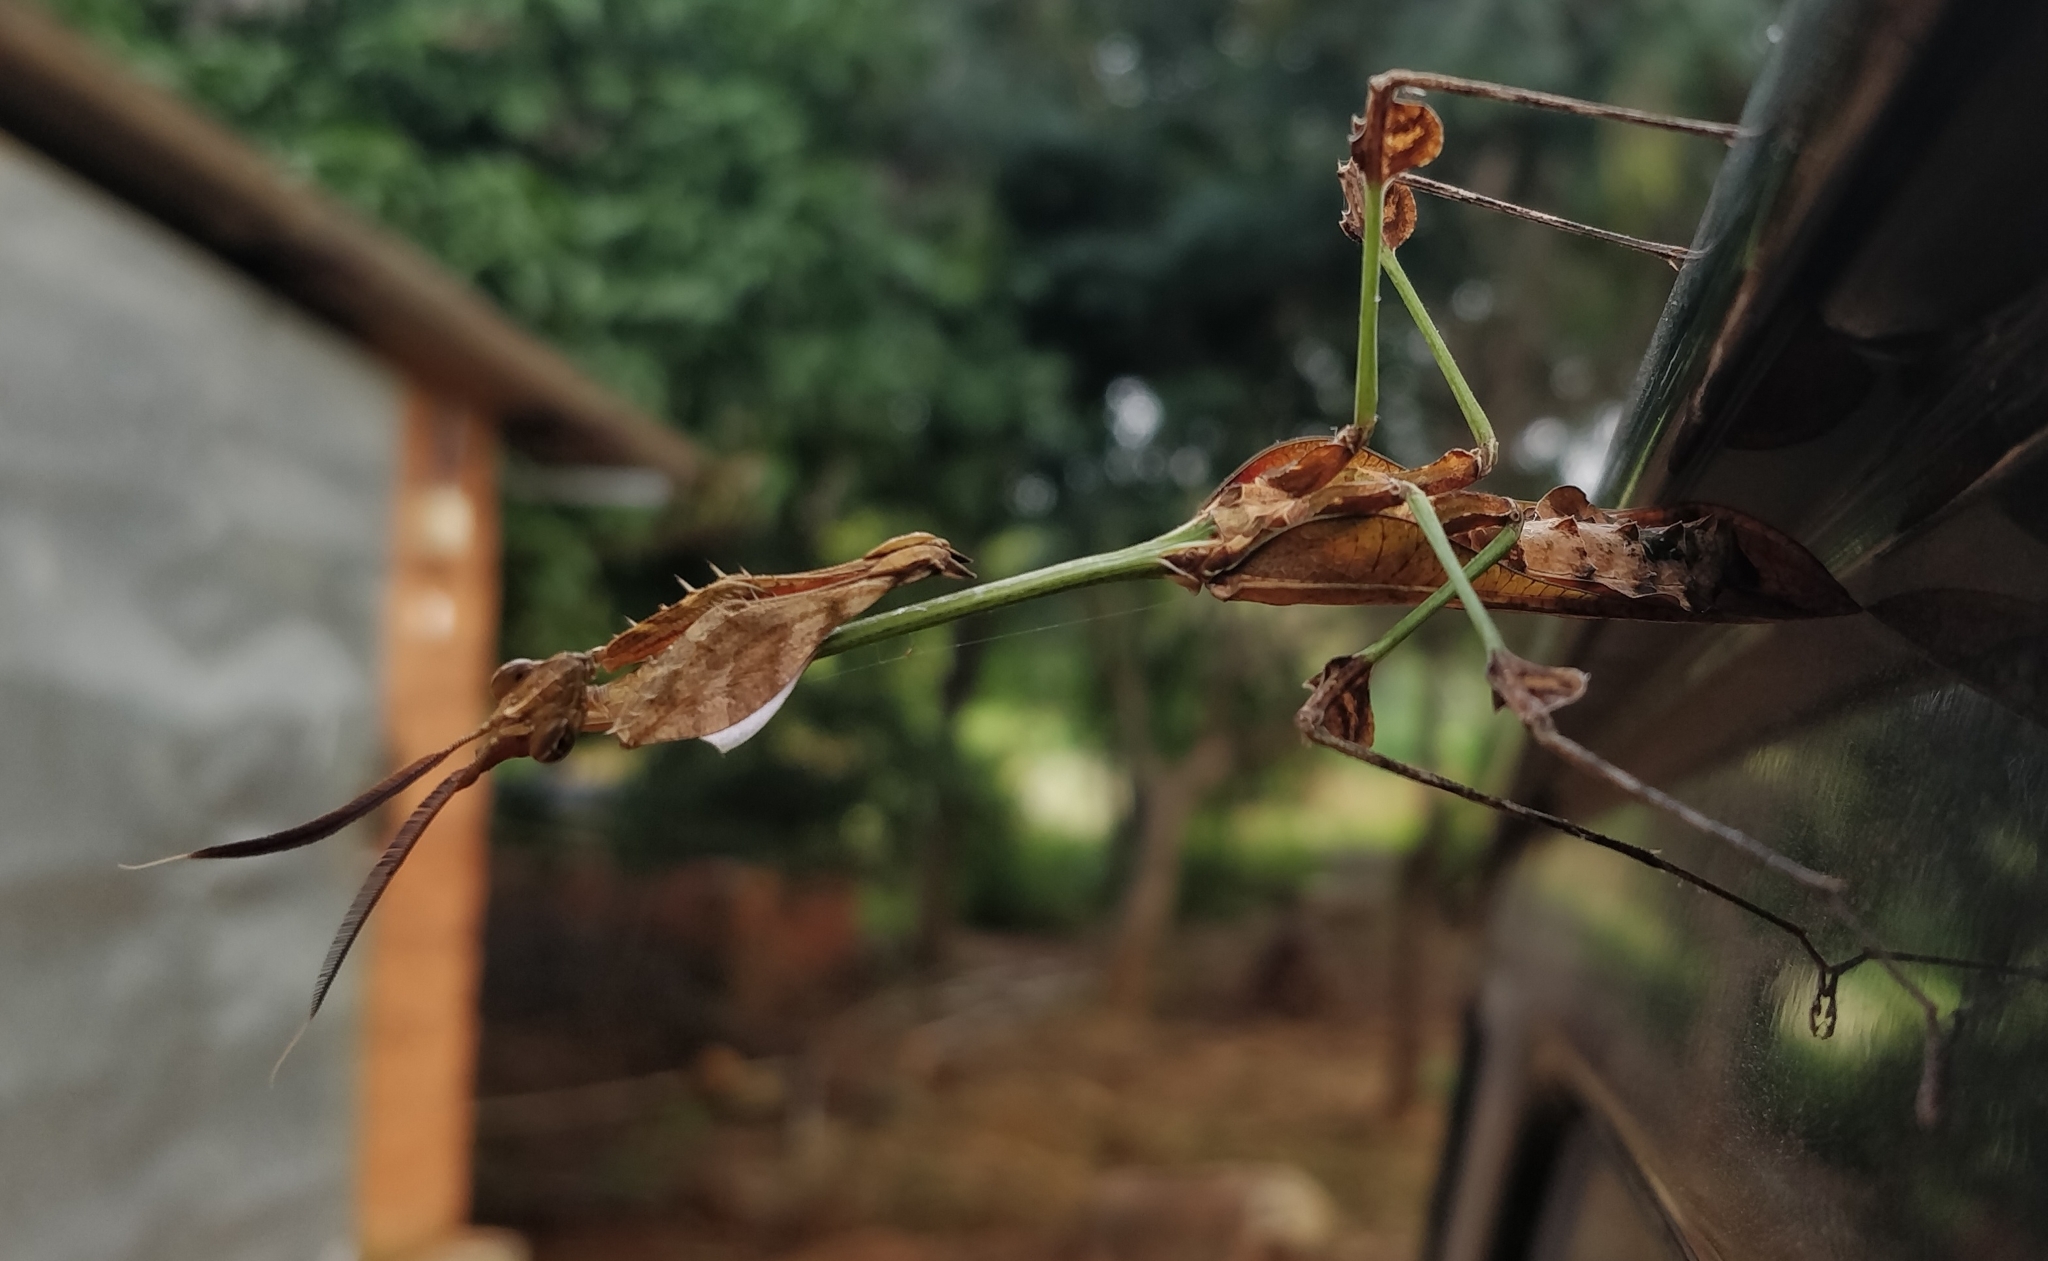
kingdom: Animalia
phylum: Arthropoda
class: Insecta
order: Mantodea
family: Empusidae
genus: Gongylus
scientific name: Gongylus gongylodes
